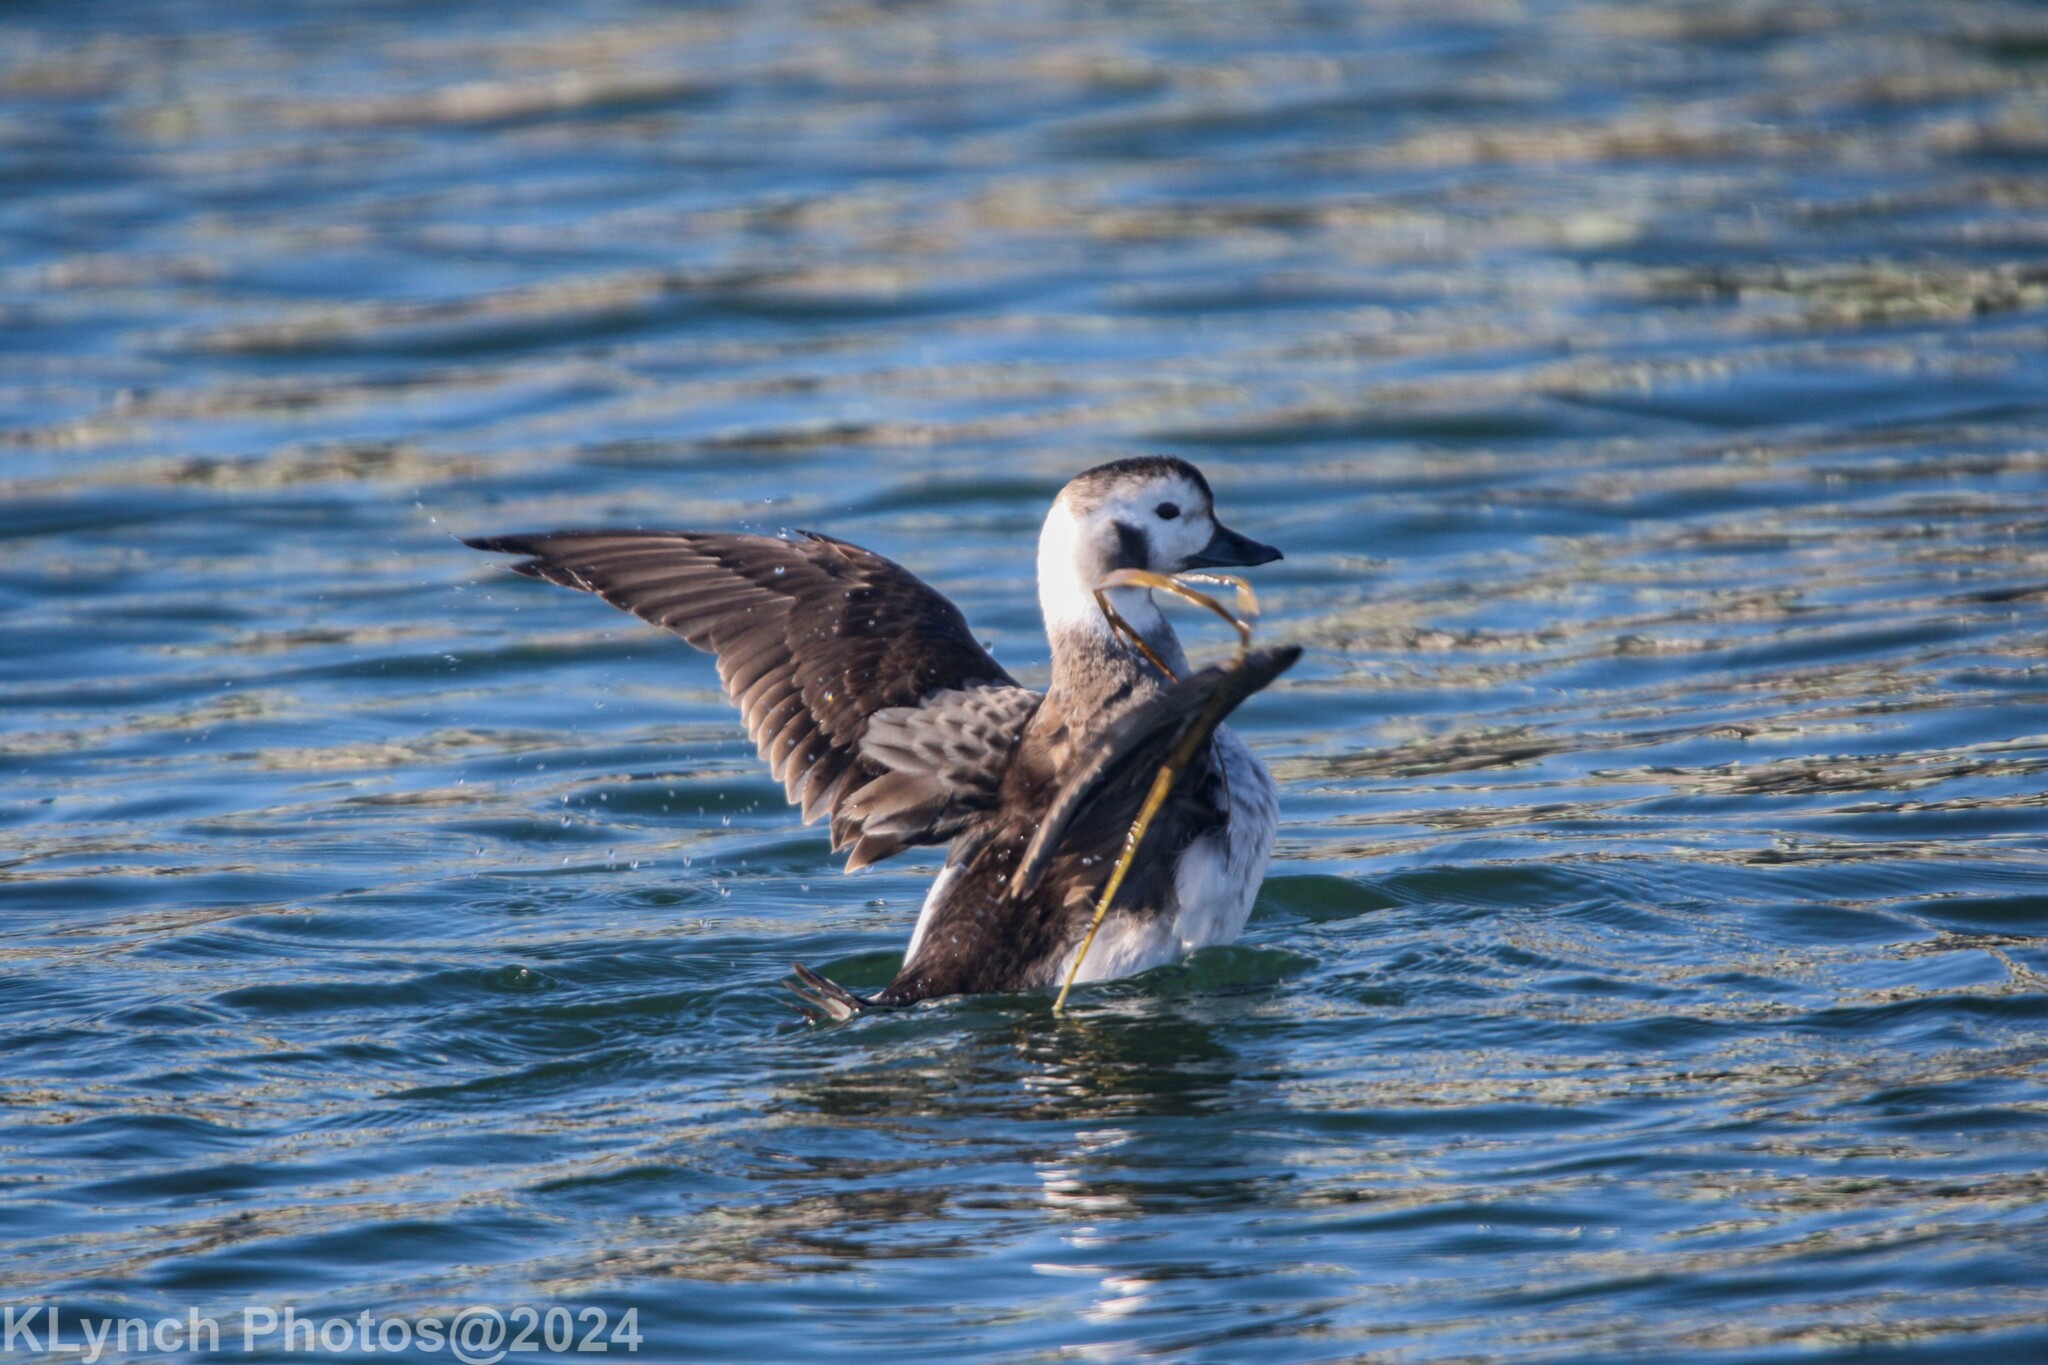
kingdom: Animalia
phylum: Chordata
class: Aves
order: Anseriformes
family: Anatidae
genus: Clangula
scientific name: Clangula hyemalis
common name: Long-tailed duck
